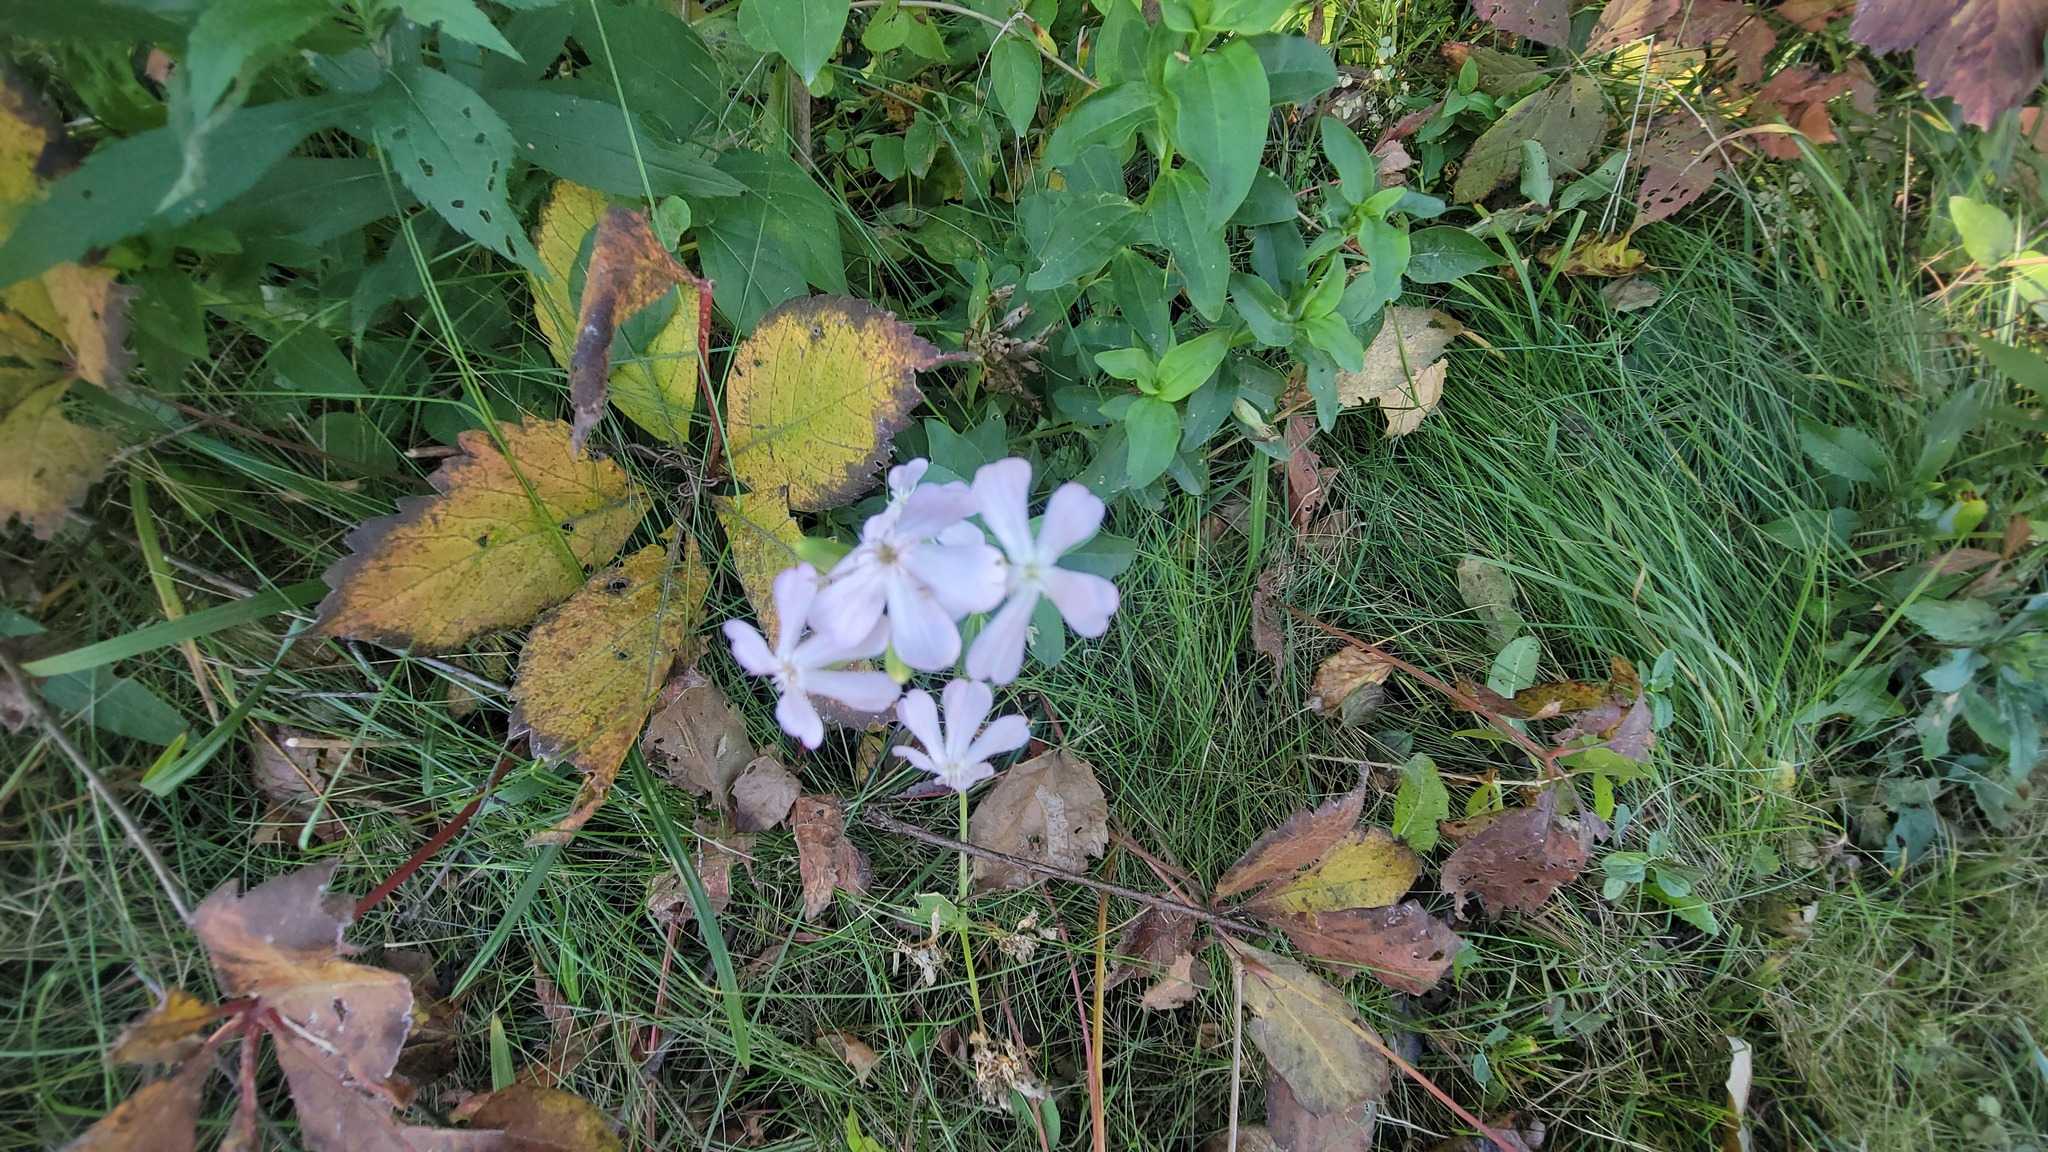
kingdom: Plantae
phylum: Tracheophyta
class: Magnoliopsida
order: Caryophyllales
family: Caryophyllaceae
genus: Saponaria
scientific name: Saponaria officinalis
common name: Soapwort
